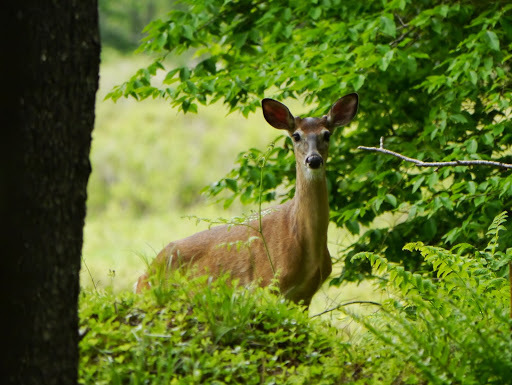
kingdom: Animalia
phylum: Chordata
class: Mammalia
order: Artiodactyla
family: Cervidae
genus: Odocoileus
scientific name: Odocoileus virginianus
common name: White-tailed deer
